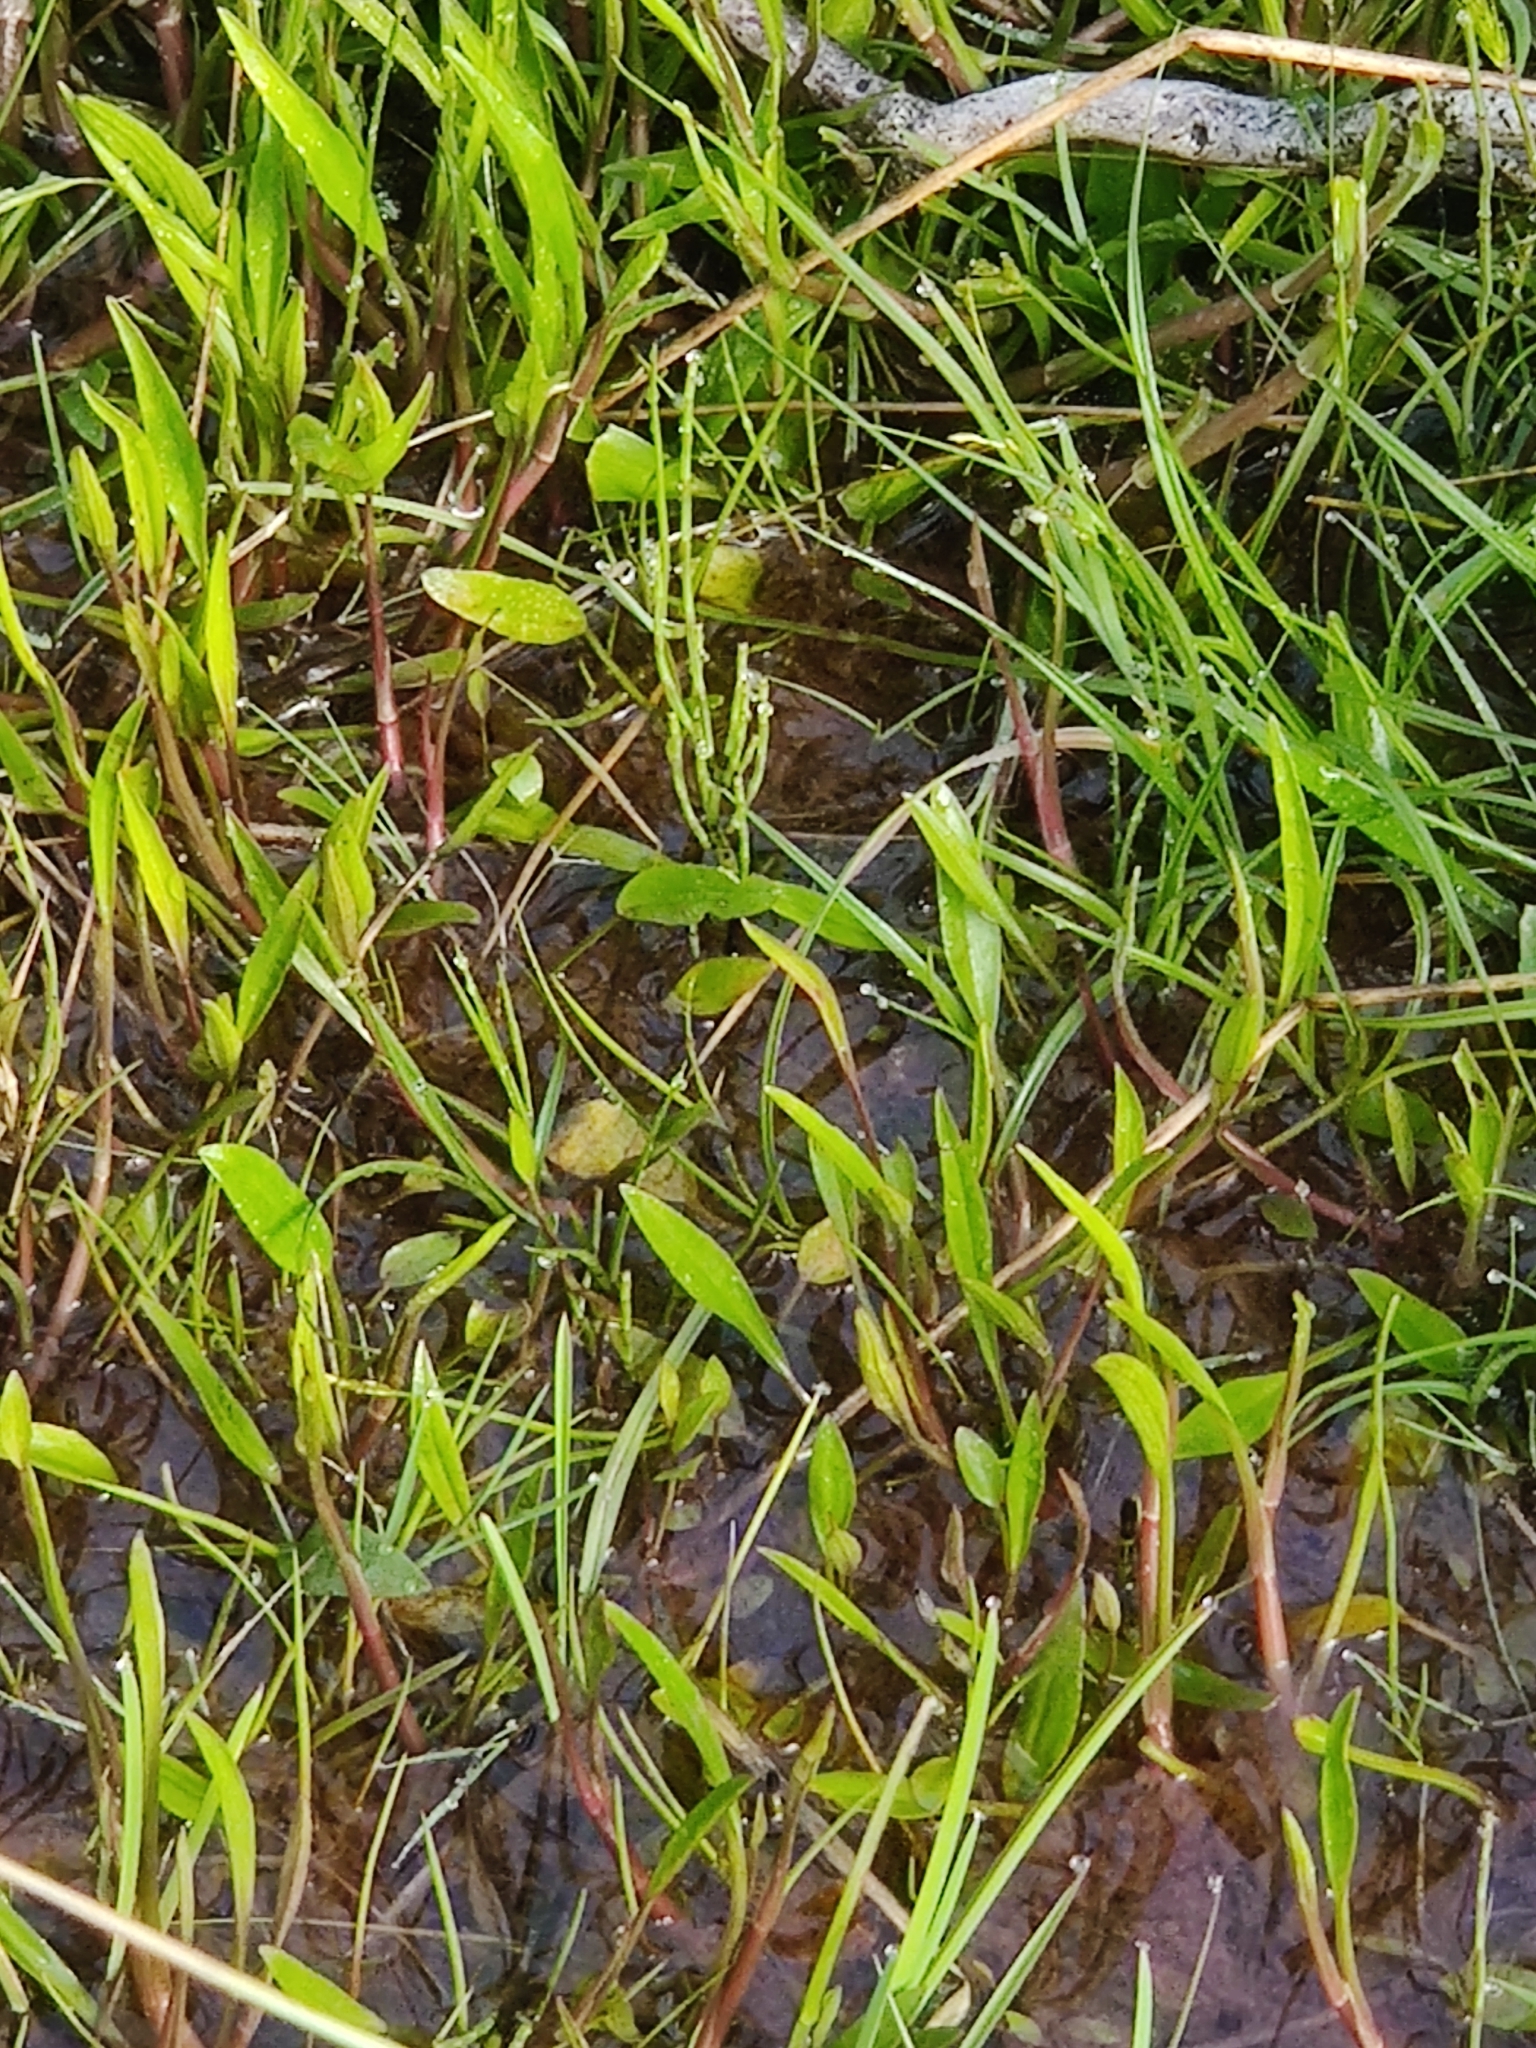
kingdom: Plantae
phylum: Tracheophyta
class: Magnoliopsida
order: Ranunculales
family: Ranunculaceae
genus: Ranunculus
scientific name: Ranunculus flammula
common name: Lesser spearwort
